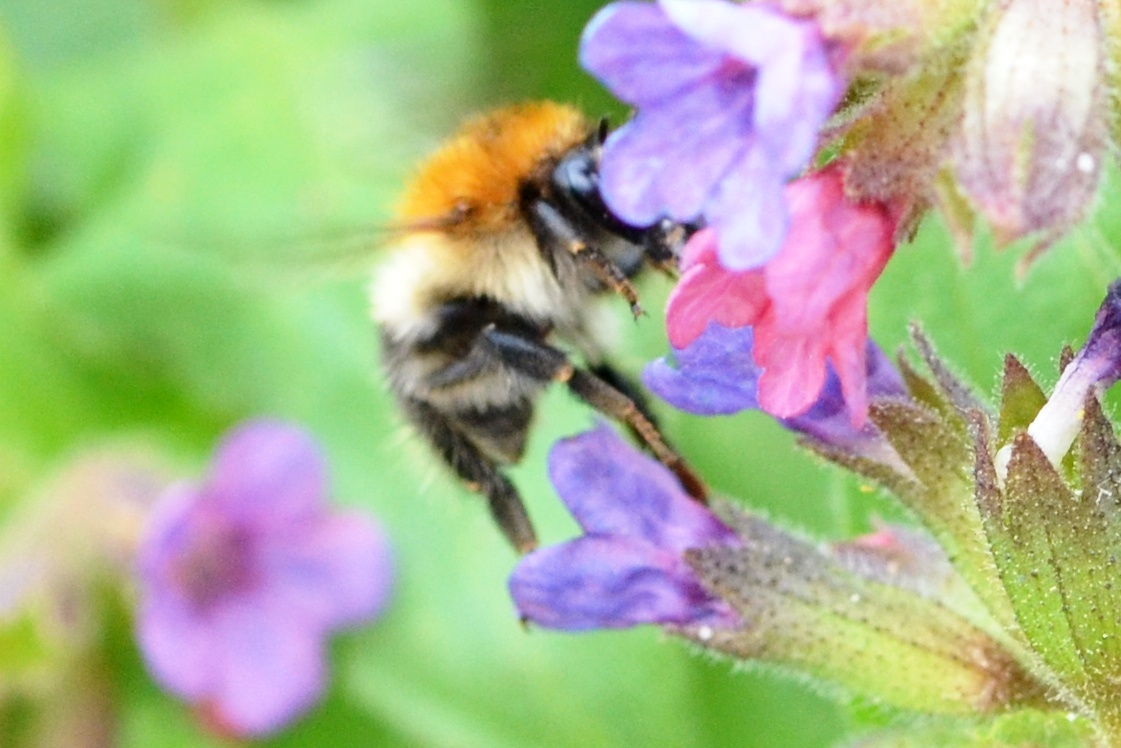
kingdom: Animalia
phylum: Arthropoda
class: Insecta
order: Hymenoptera
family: Apidae
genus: Bombus
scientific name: Bombus pascuorum
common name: Common carder bee
